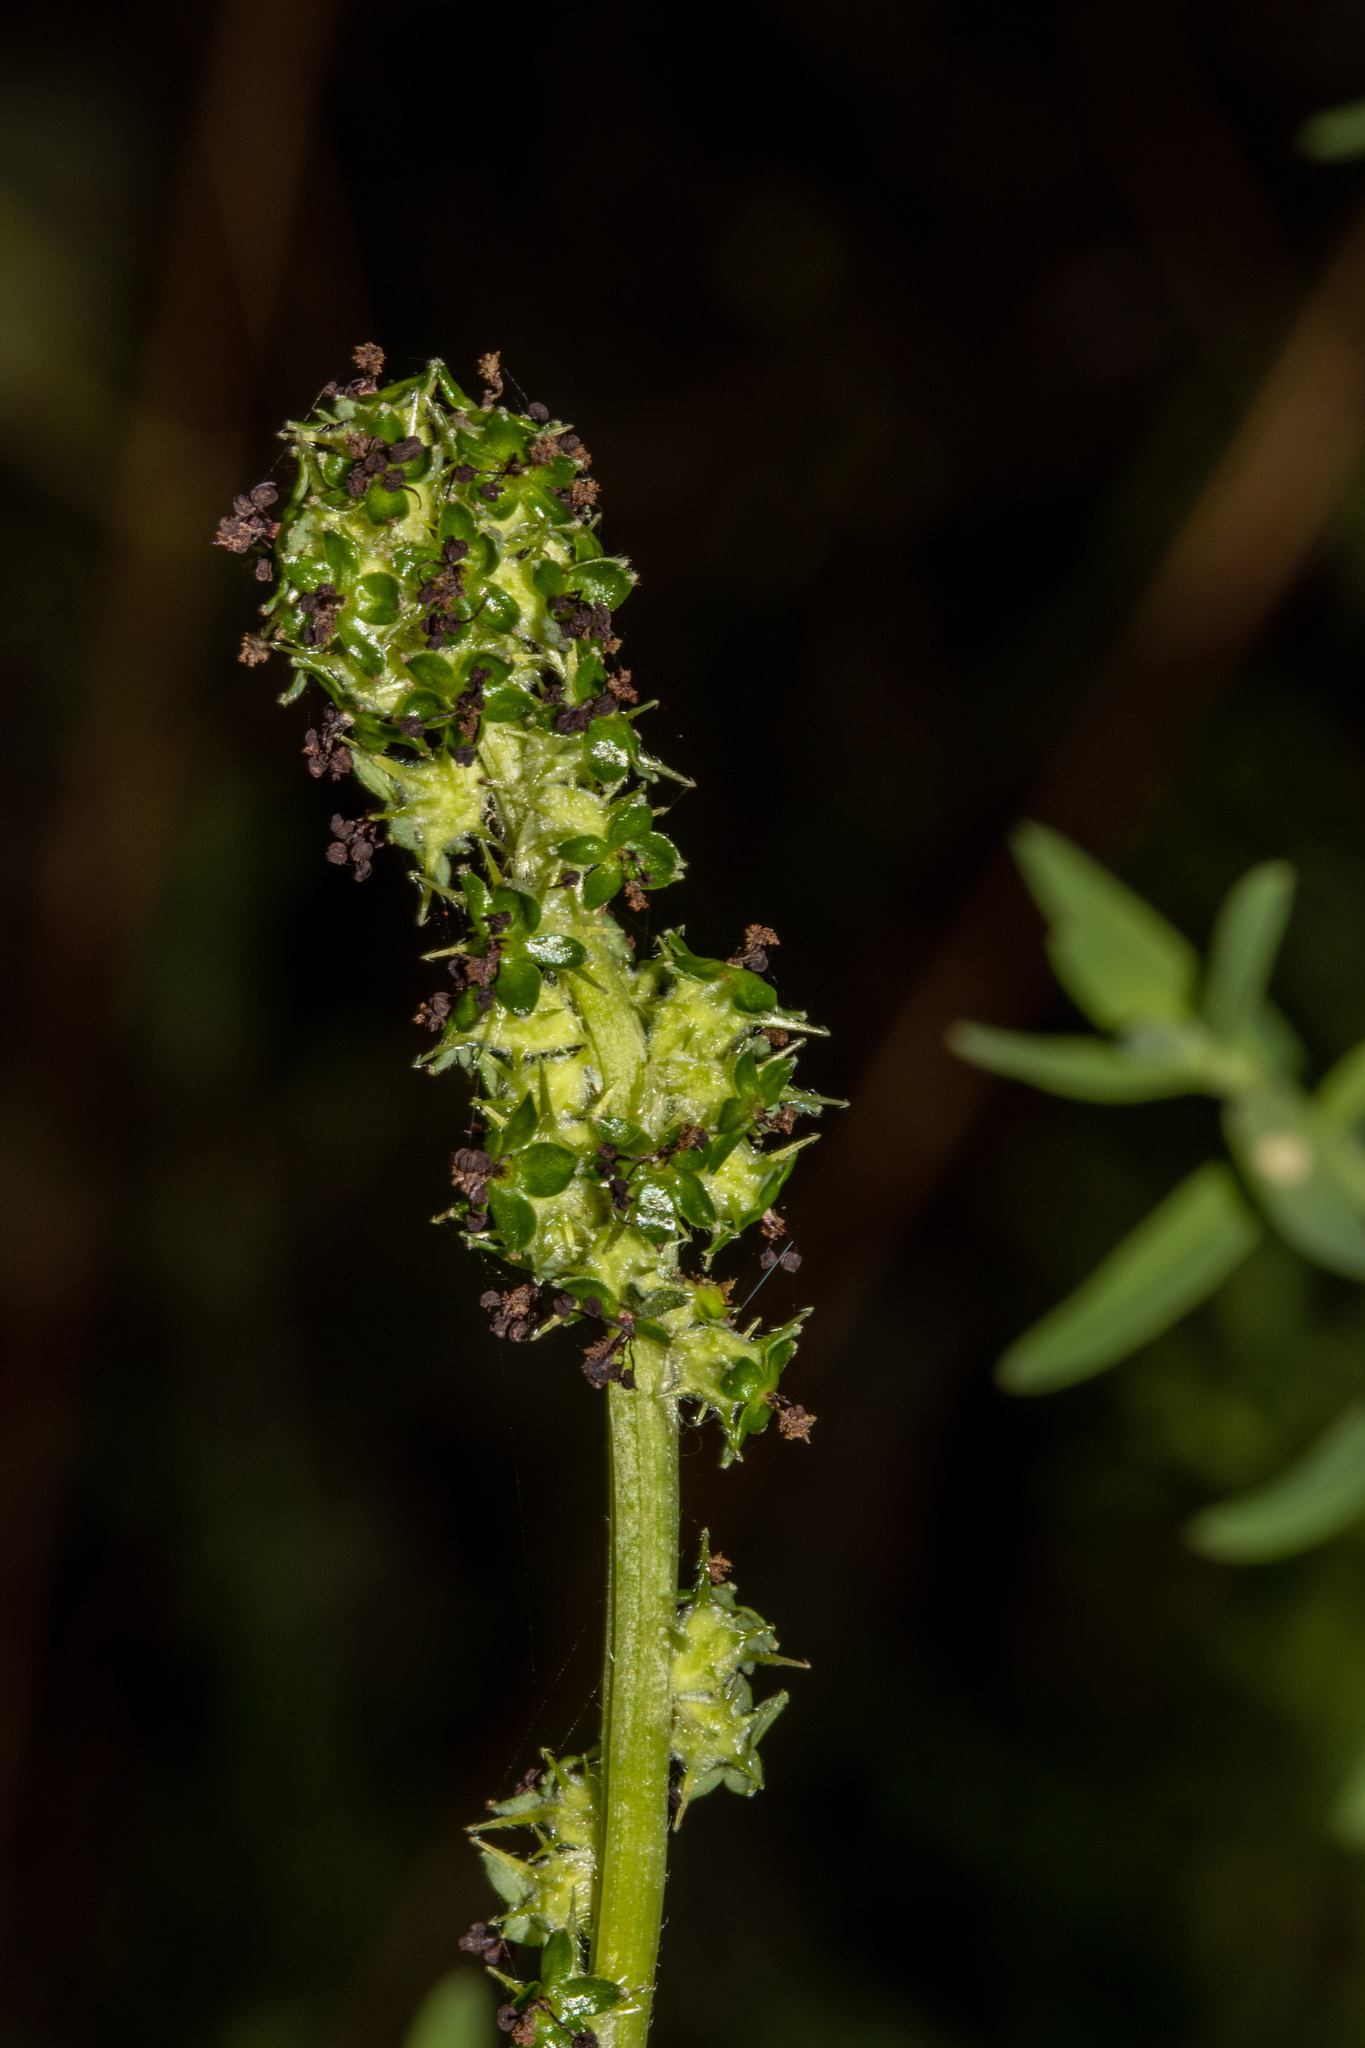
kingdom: Plantae
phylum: Tracheophyta
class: Magnoliopsida
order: Rosales
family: Rosaceae
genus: Acaena
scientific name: Acaena echinata
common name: Sheepbur
